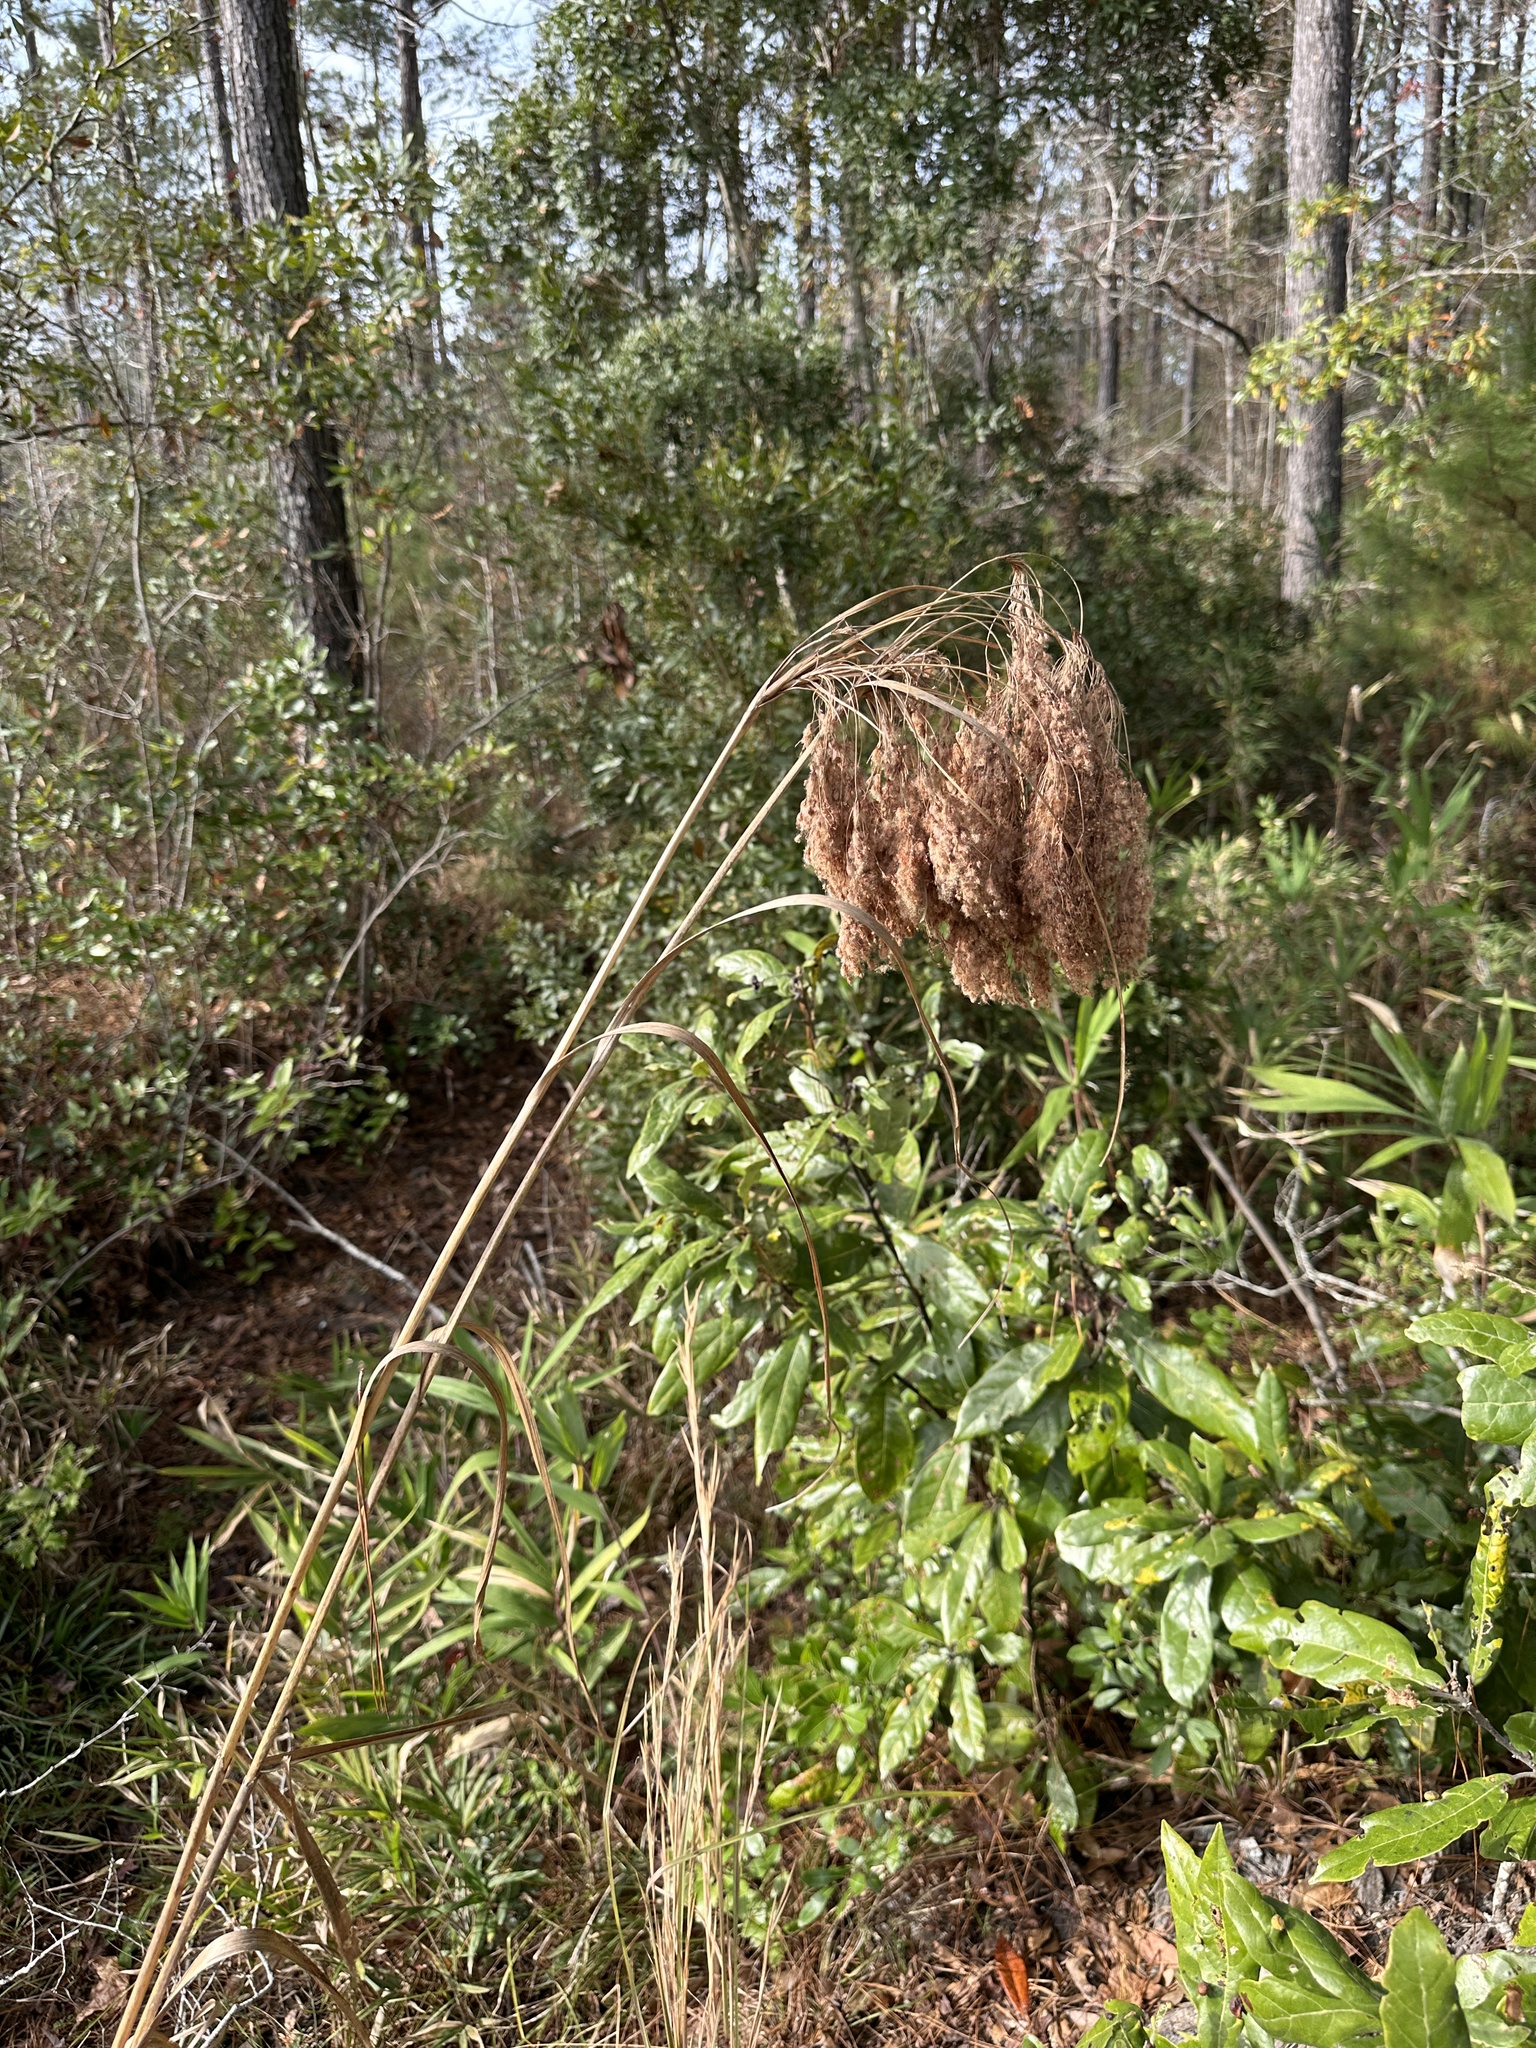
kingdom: Plantae
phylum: Tracheophyta
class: Liliopsida
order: Poales
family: Cyperaceae
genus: Scirpus
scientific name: Scirpus cyperinus
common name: Black-sheathed bulrush
